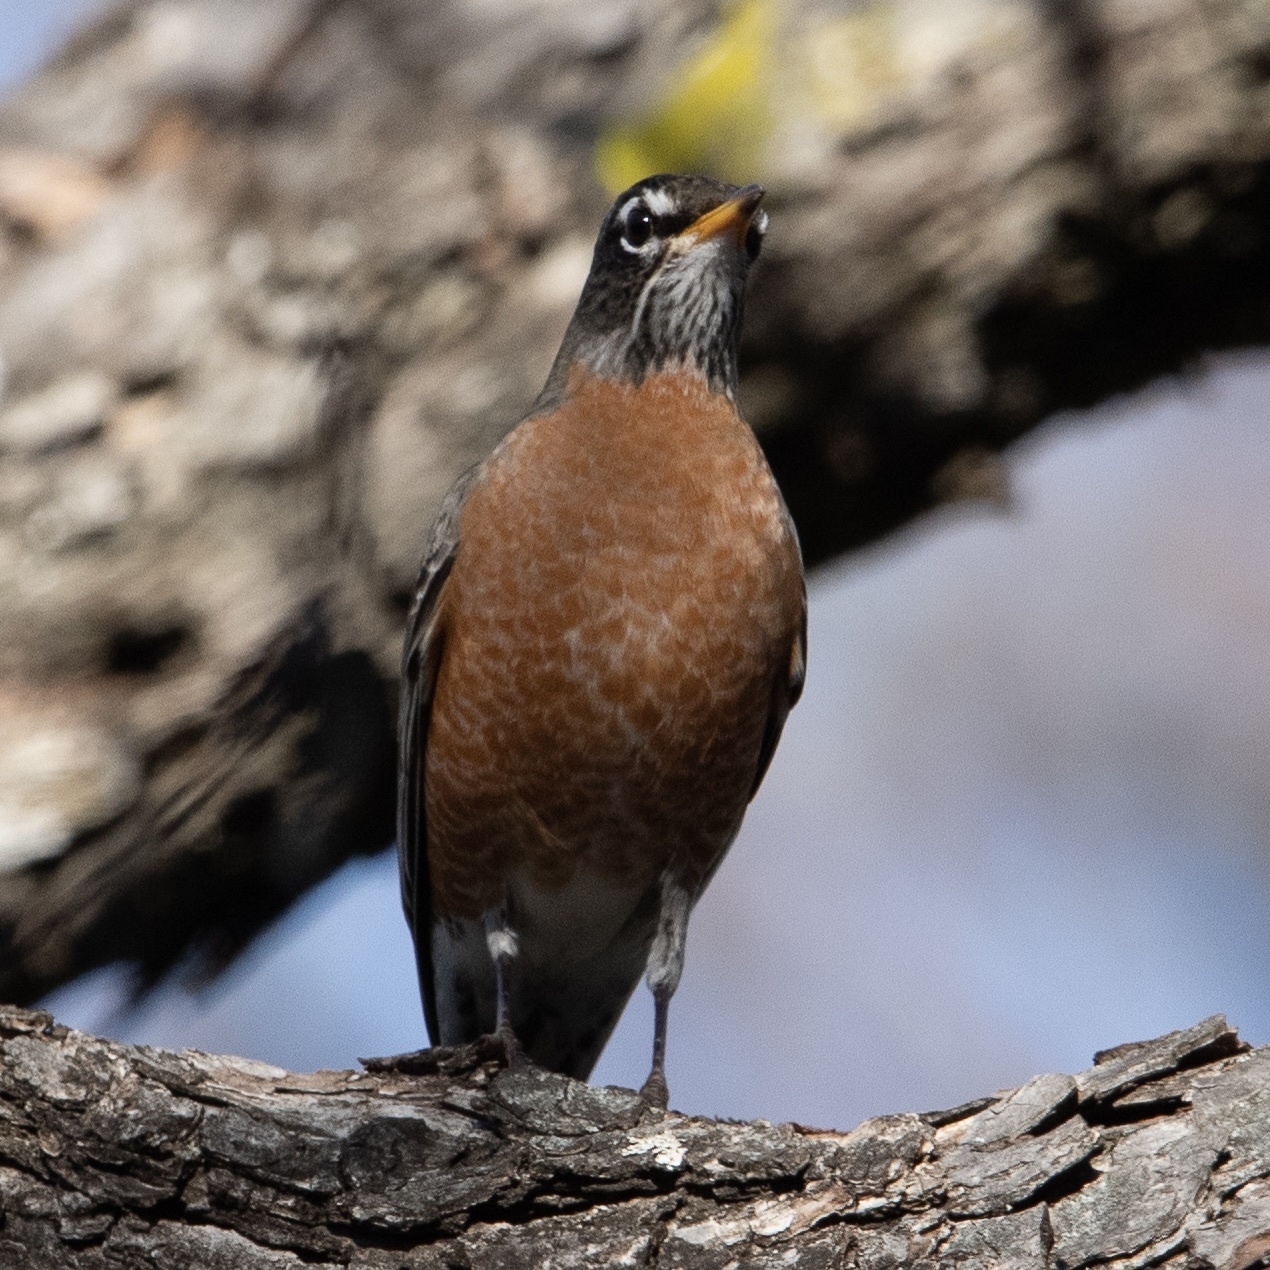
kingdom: Animalia
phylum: Chordata
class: Aves
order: Passeriformes
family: Turdidae
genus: Turdus
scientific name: Turdus migratorius
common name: American robin
